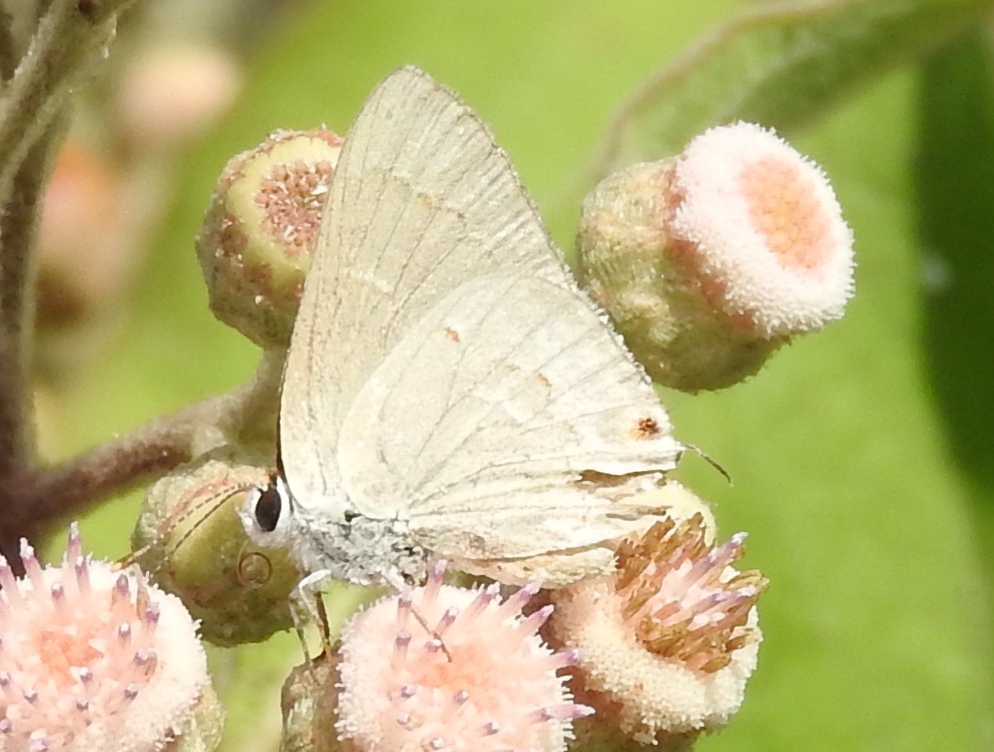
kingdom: Animalia
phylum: Arthropoda
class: Insecta
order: Lepidoptera
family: Lycaenidae
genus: Thecla
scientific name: Thecla rufofusca
